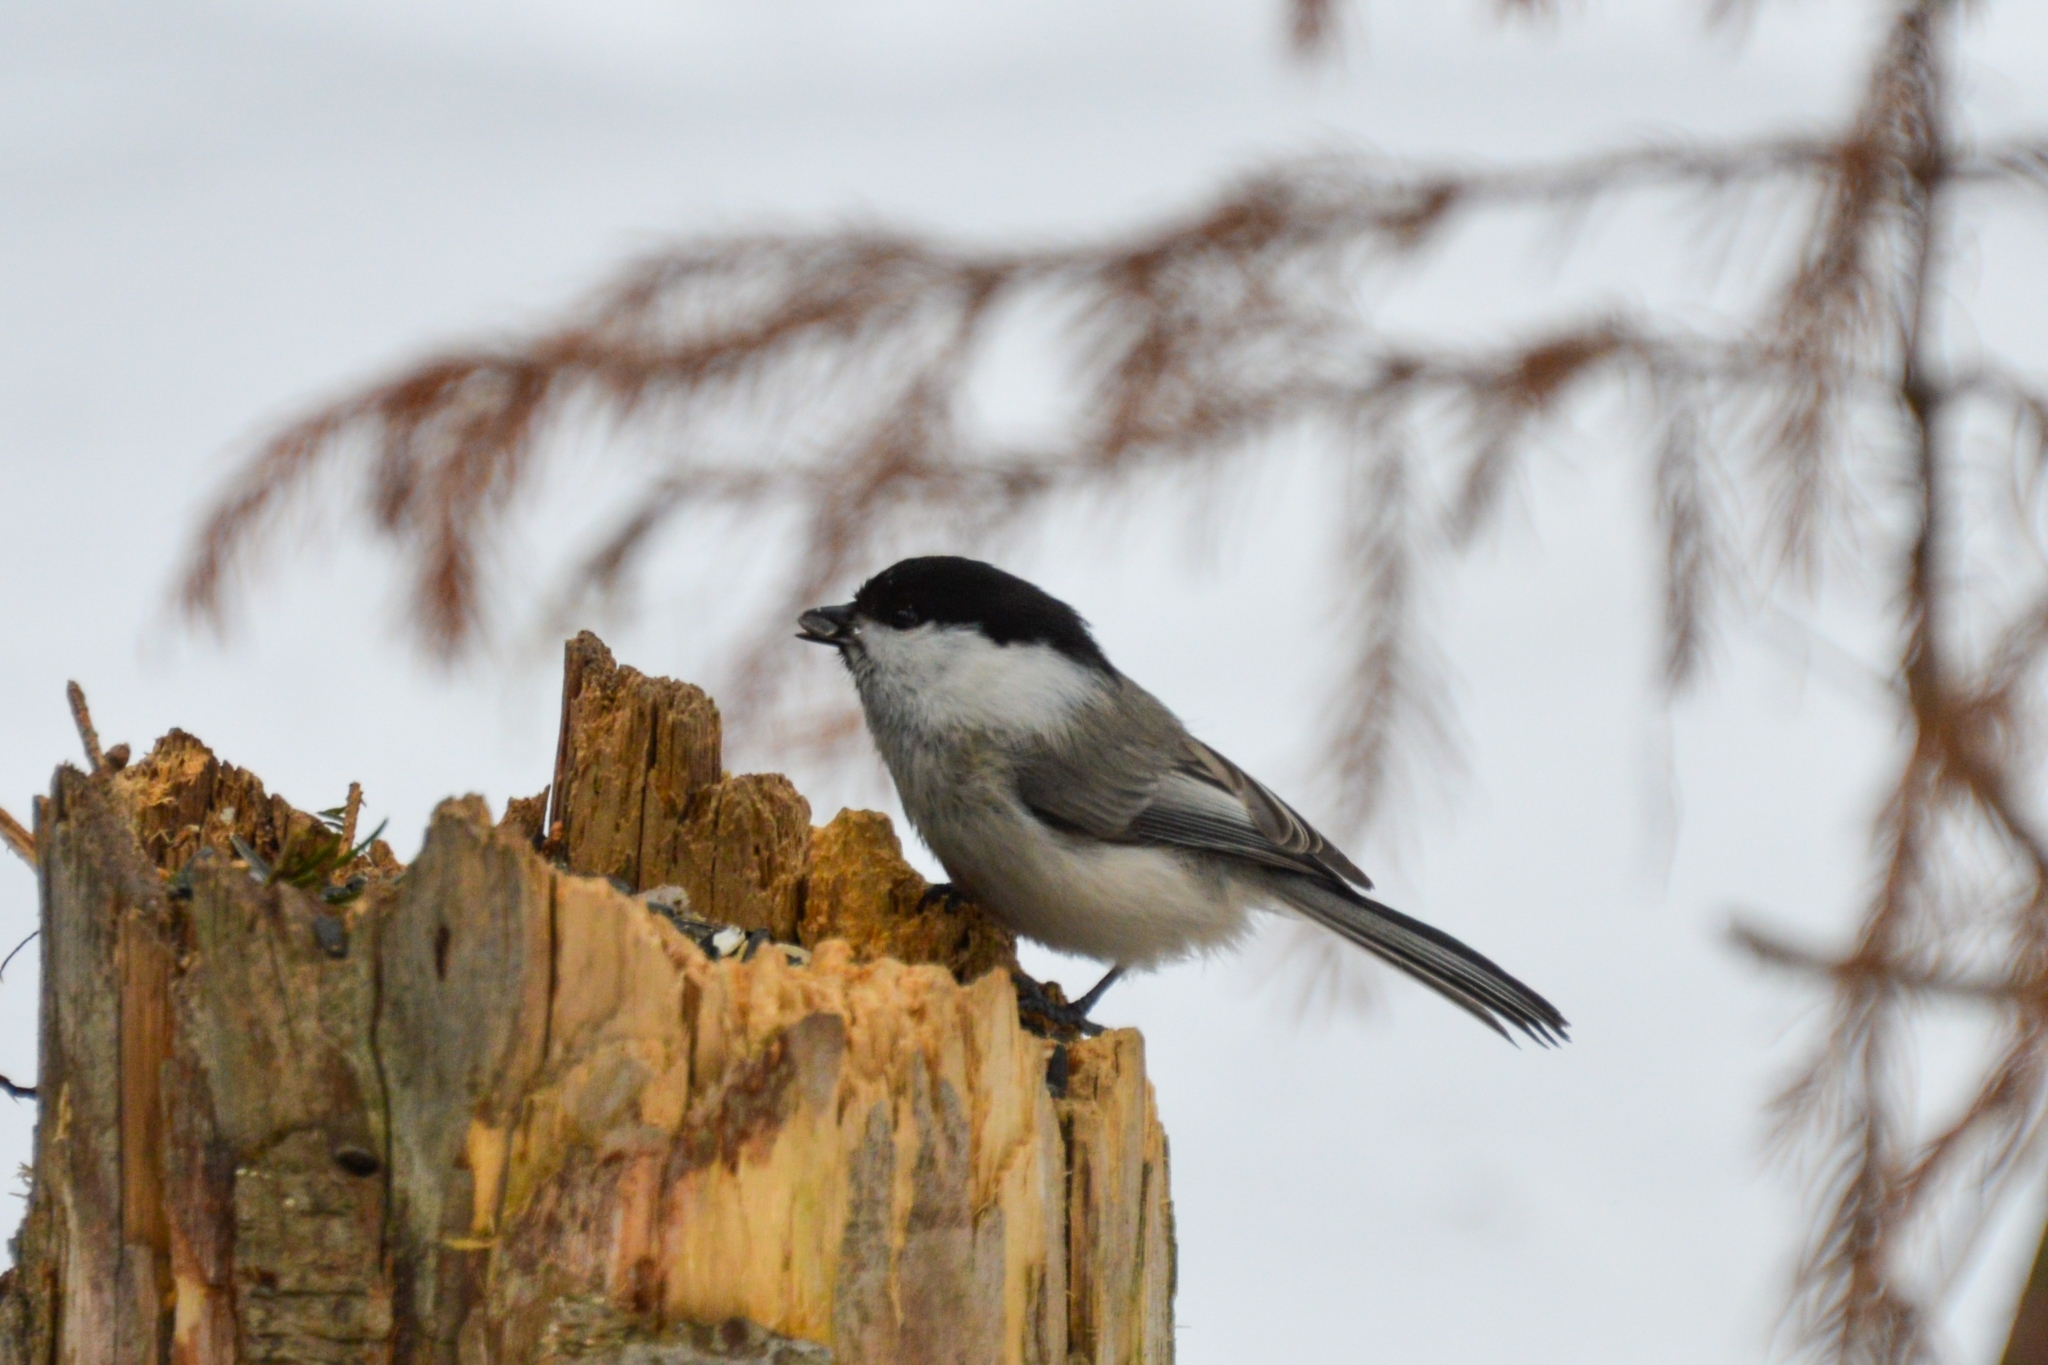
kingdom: Animalia
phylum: Chordata
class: Aves
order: Passeriformes
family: Paridae
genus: Poecile
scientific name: Poecile montanus
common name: Willow tit
